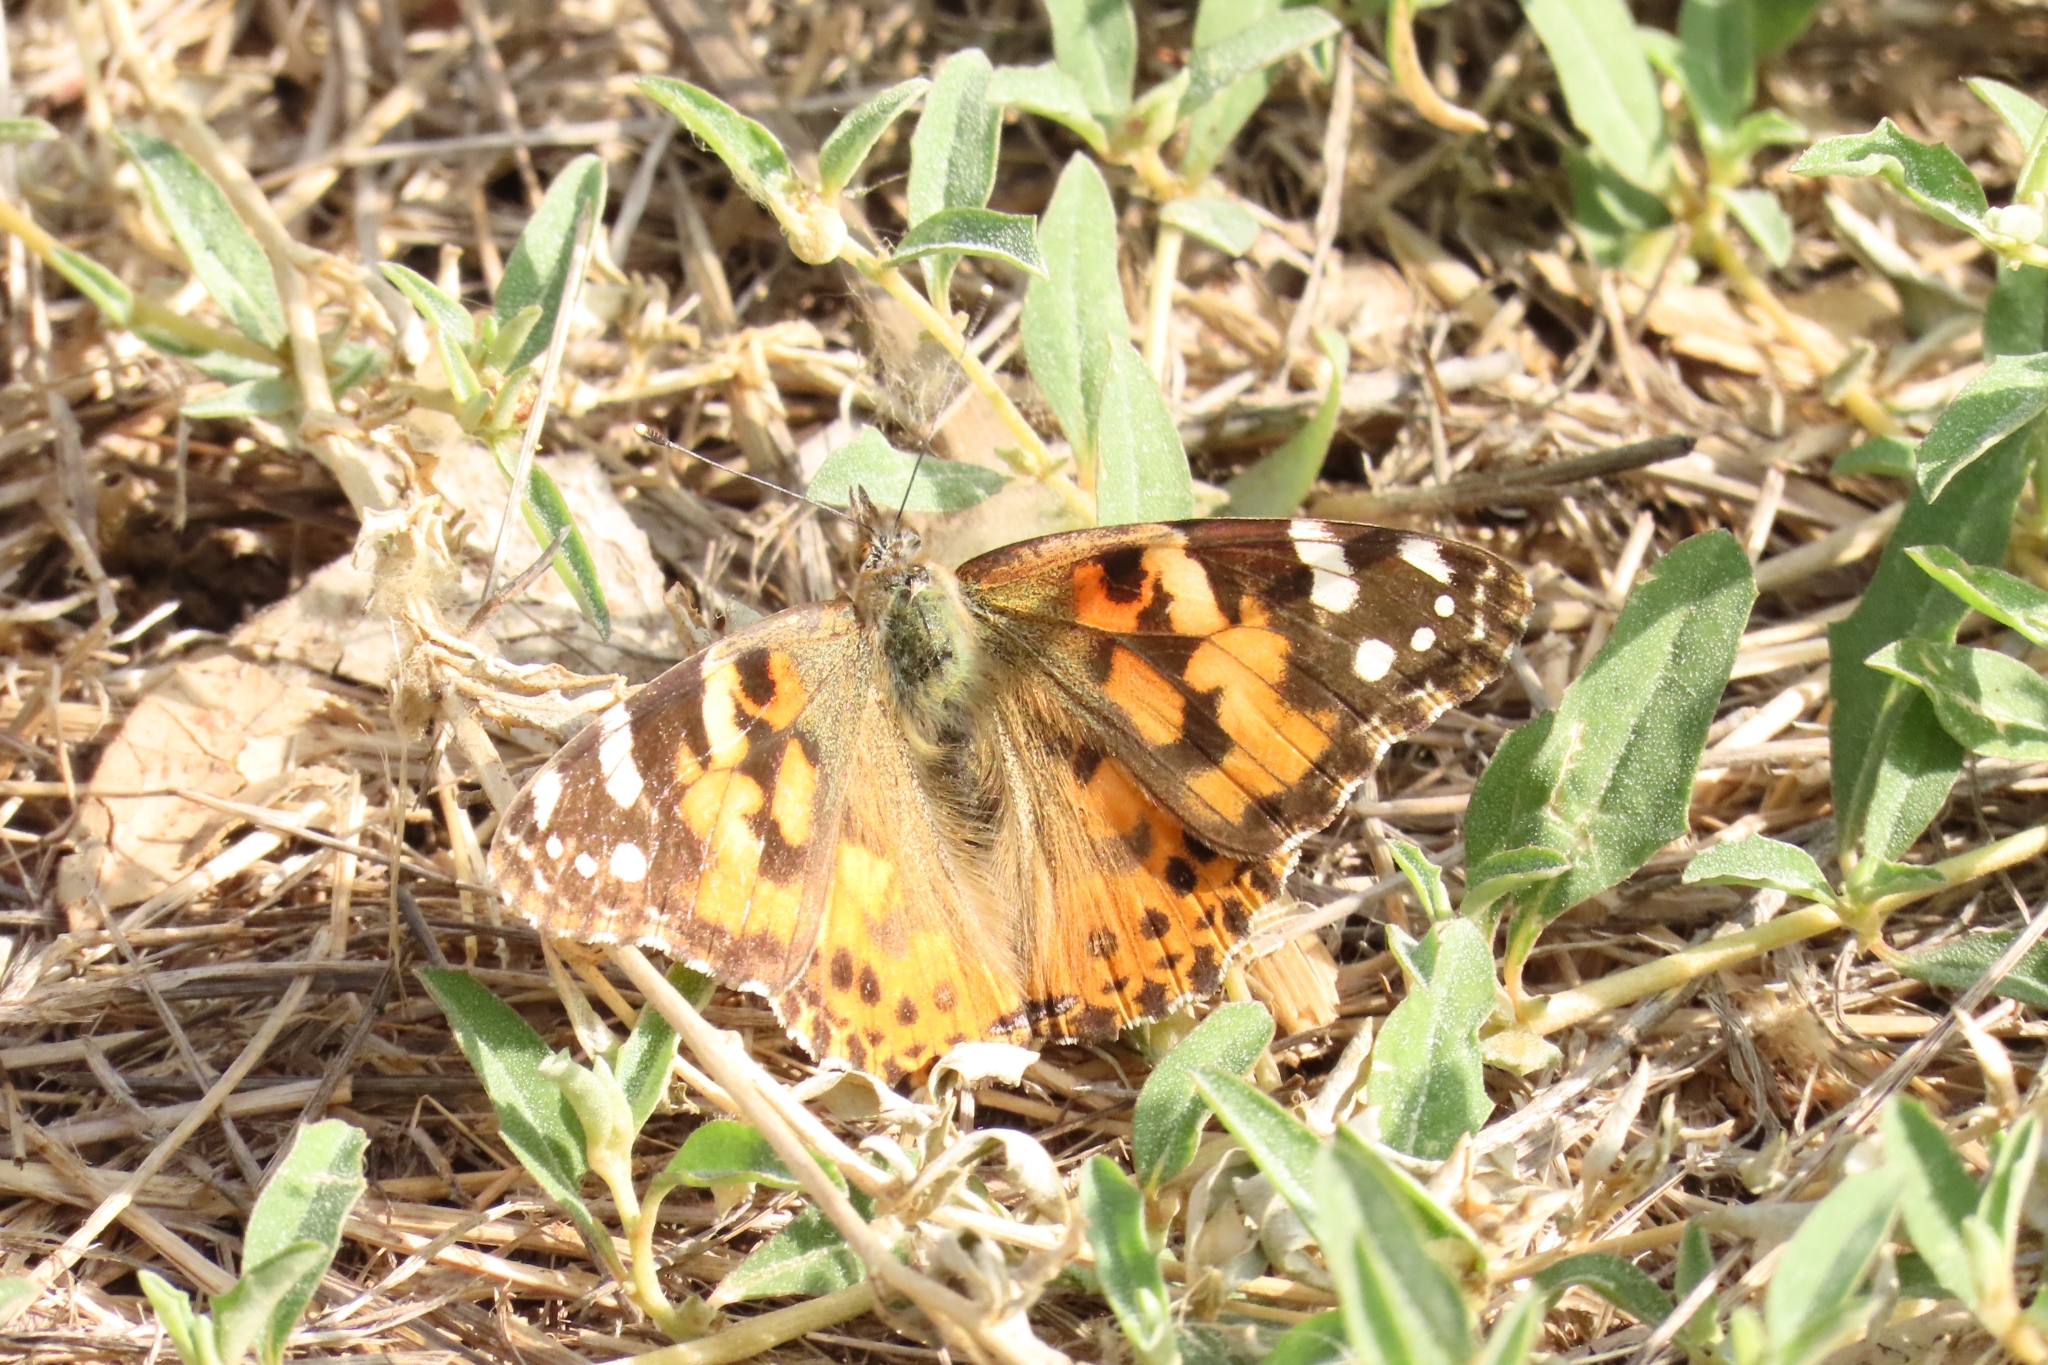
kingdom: Animalia
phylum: Arthropoda
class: Insecta
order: Lepidoptera
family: Nymphalidae
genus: Vanessa
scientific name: Vanessa cardui
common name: Painted lady
